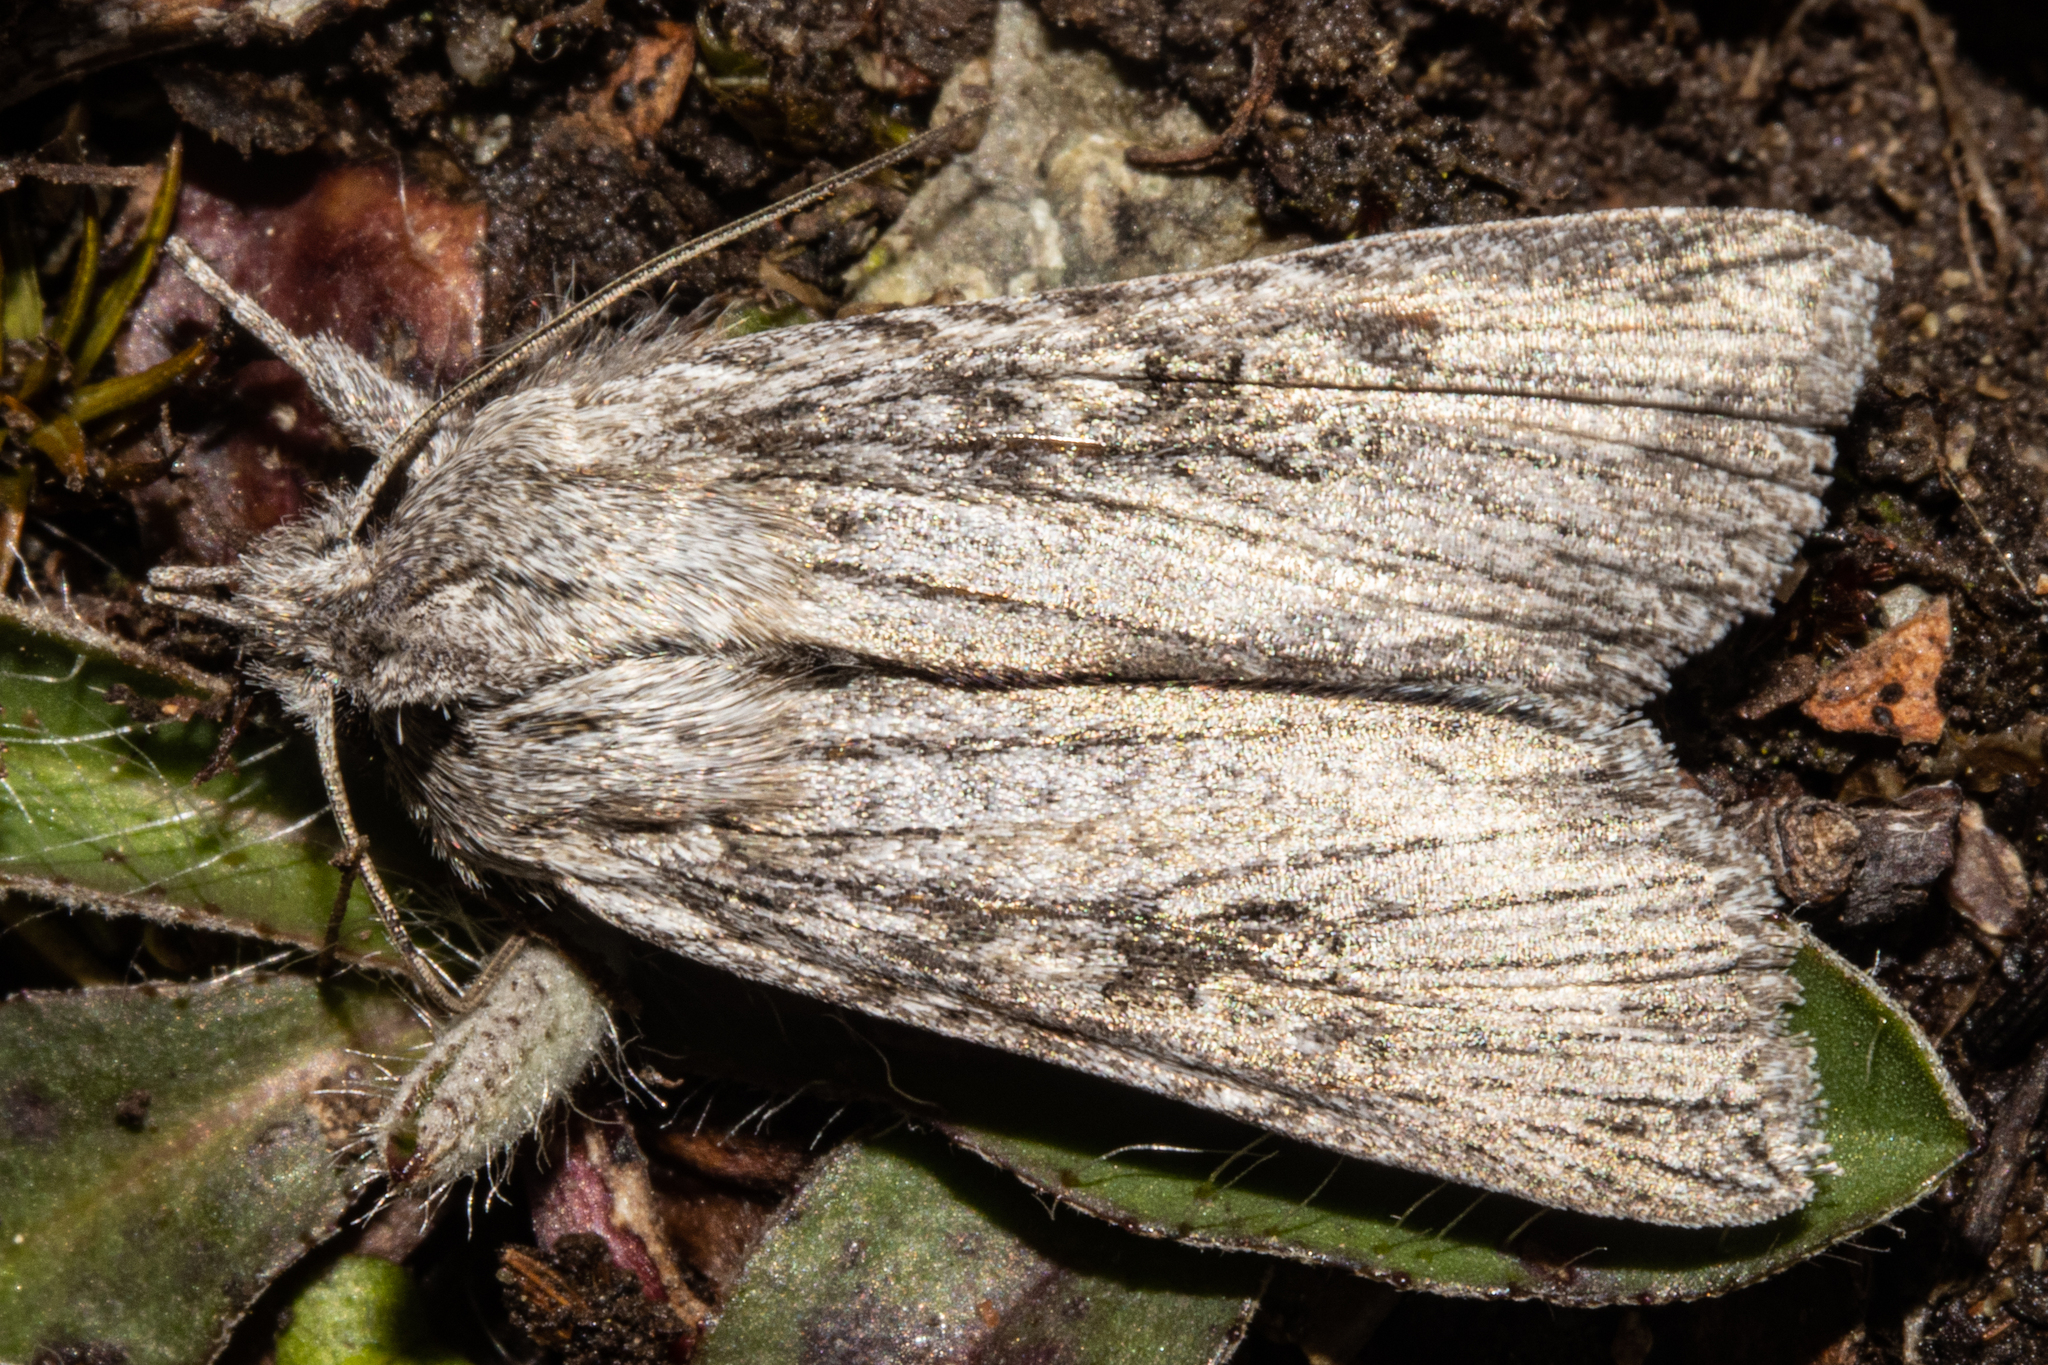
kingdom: Animalia
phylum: Arthropoda
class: Insecta
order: Lepidoptera
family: Noctuidae
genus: Physetica
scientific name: Physetica phricias
